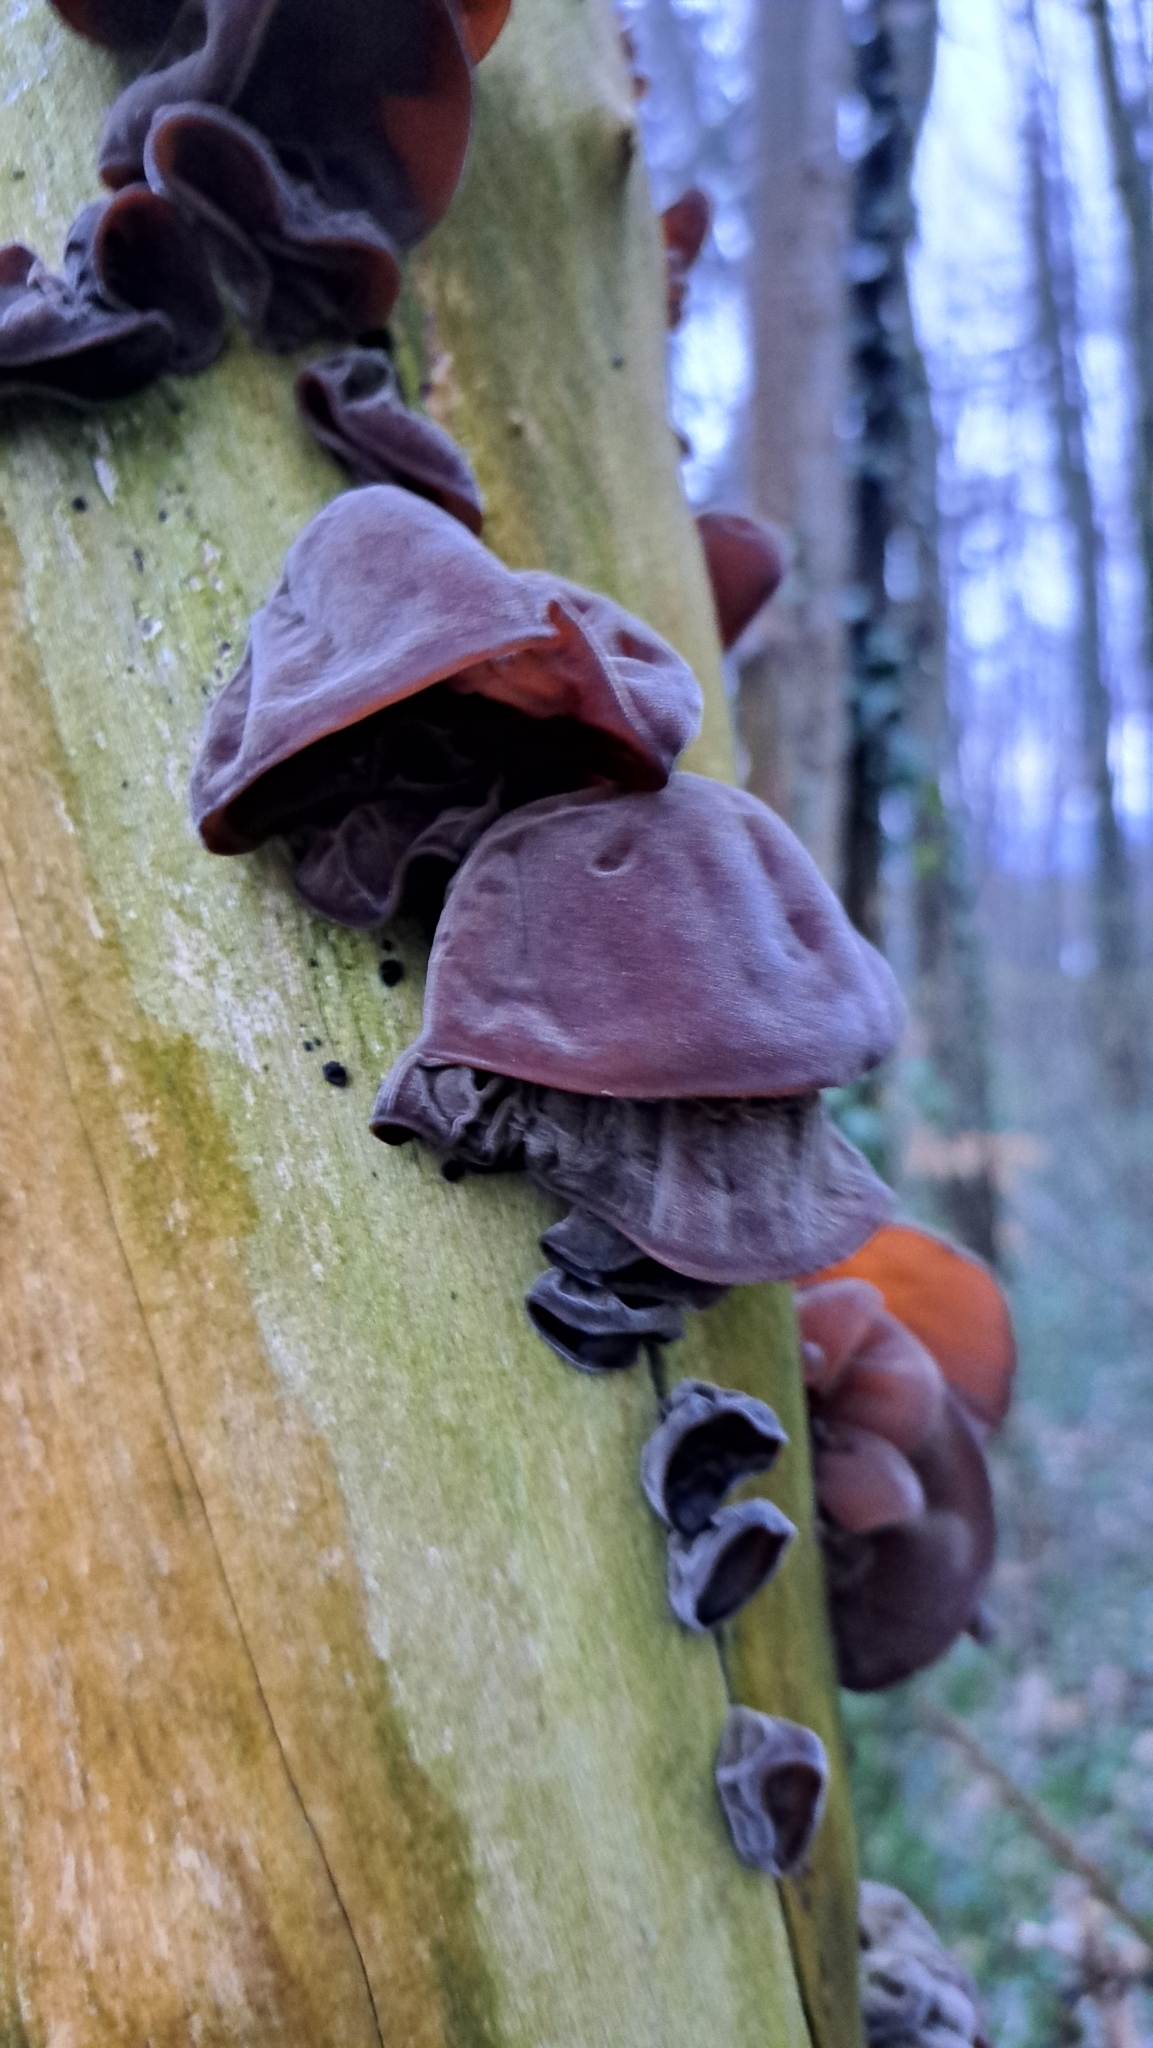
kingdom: Fungi
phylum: Basidiomycota
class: Agaricomycetes
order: Auriculariales
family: Auriculariaceae
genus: Auricularia
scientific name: Auricularia auricula-judae
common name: Jelly ear
